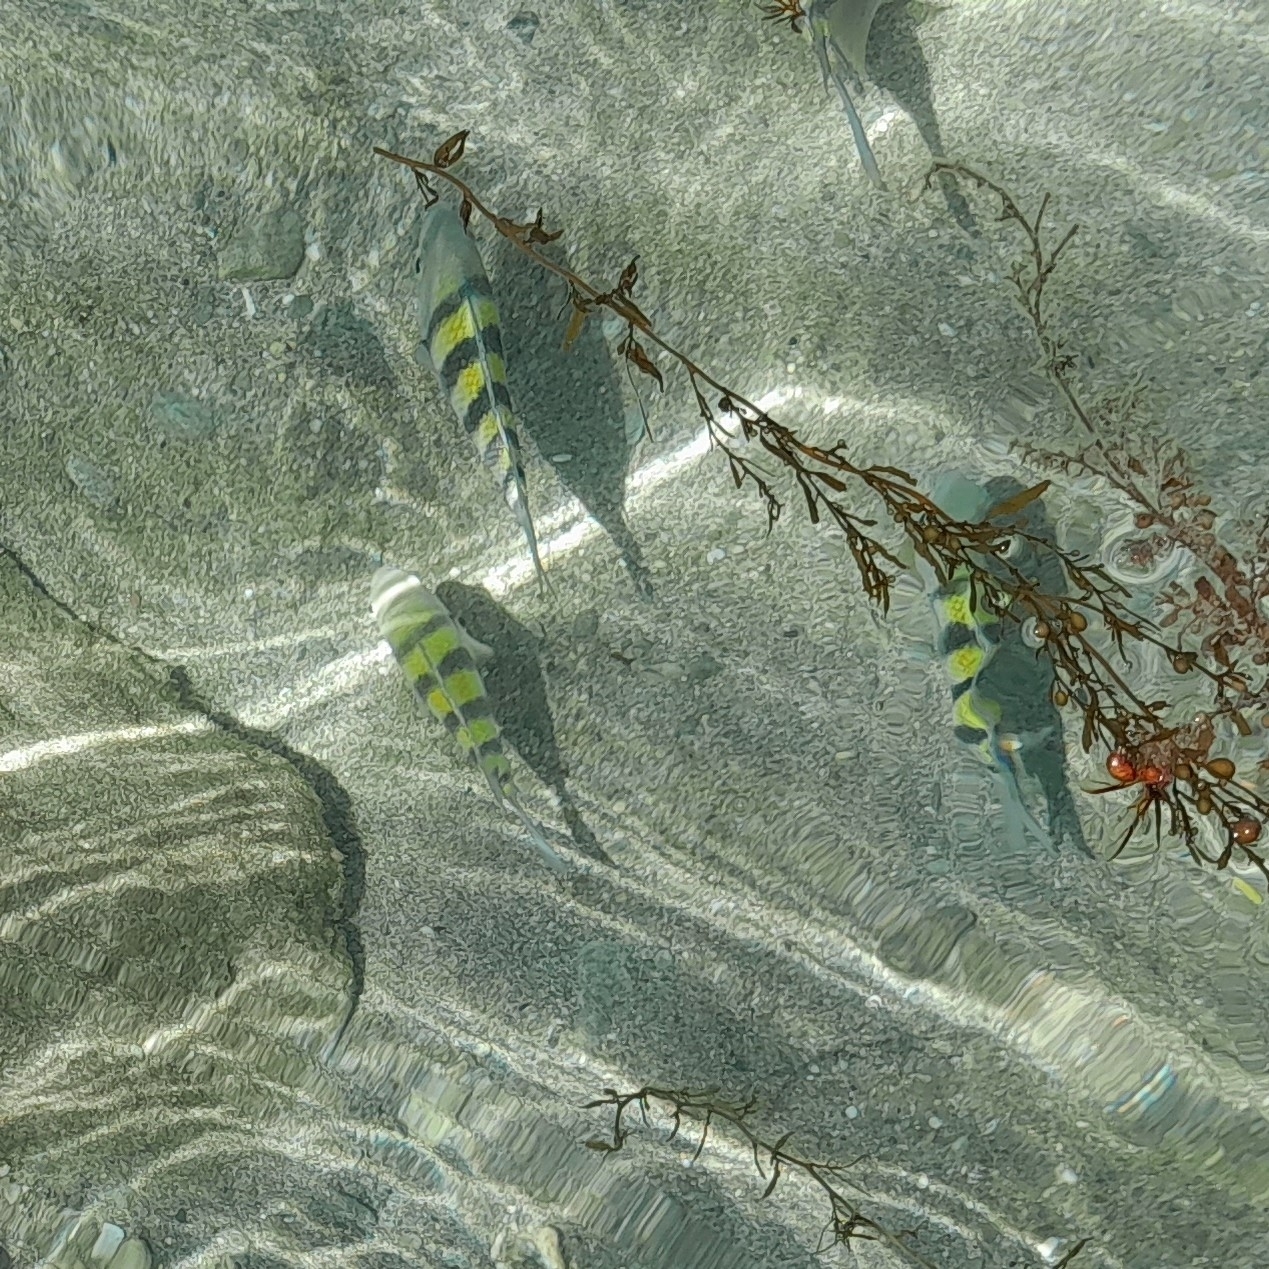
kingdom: Animalia
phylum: Chordata
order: Perciformes
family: Pomacentridae
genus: Abudefduf
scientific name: Abudefduf saxatilis
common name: Sergeant major
